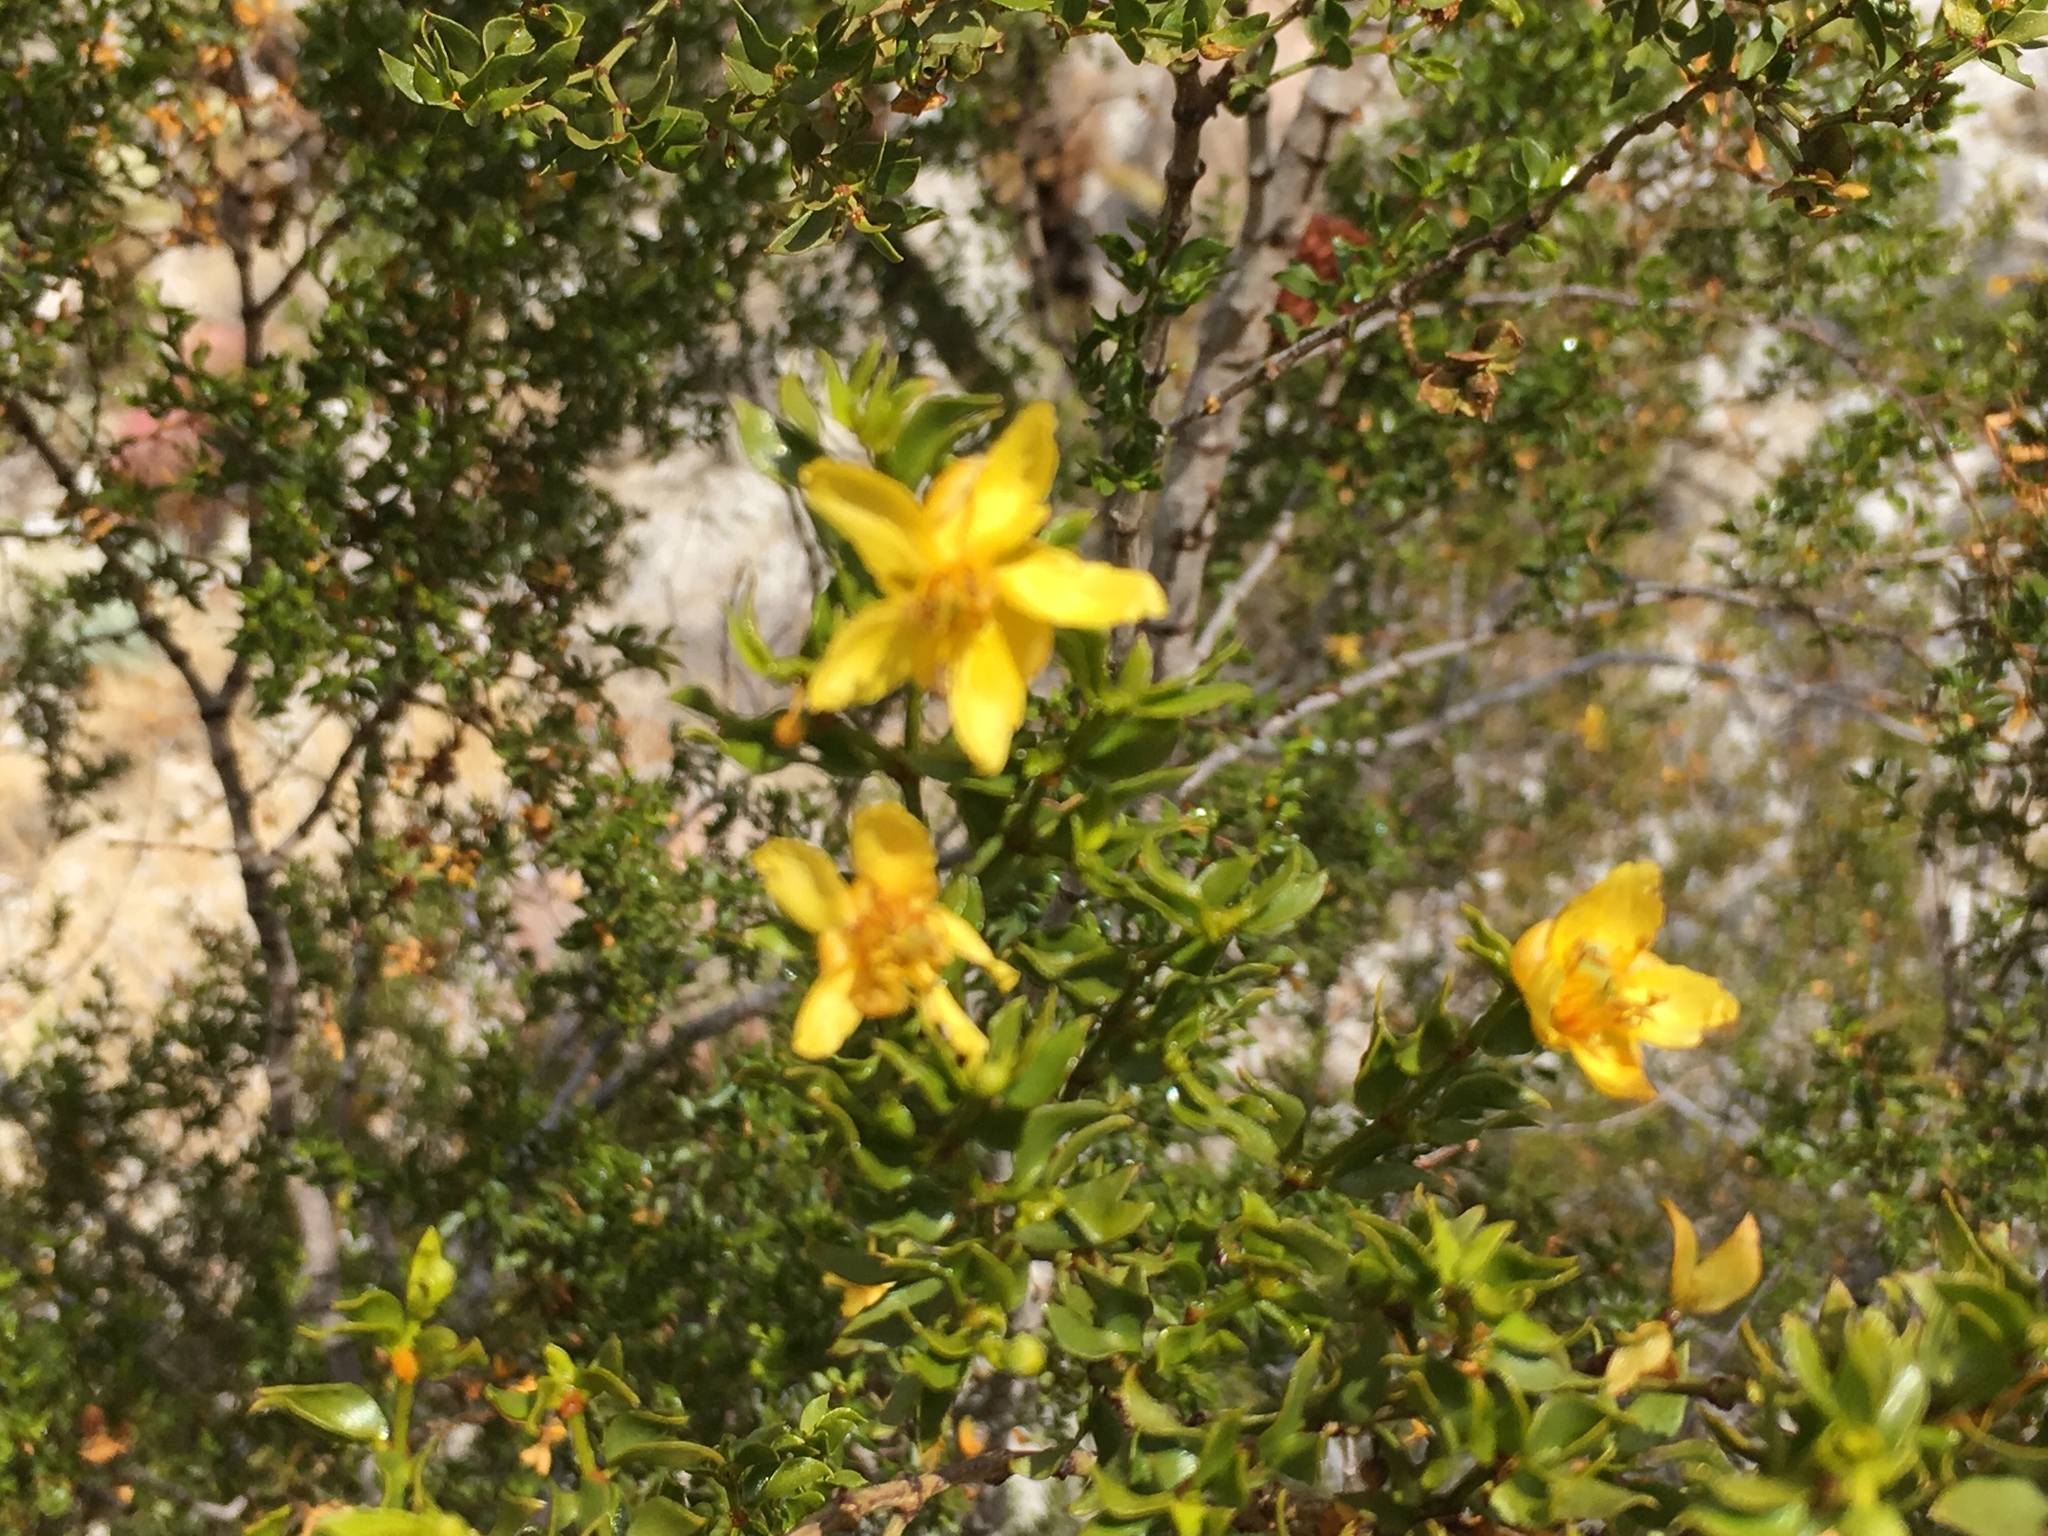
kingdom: Plantae
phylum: Tracheophyta
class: Magnoliopsida
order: Zygophyllales
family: Zygophyllaceae
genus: Larrea
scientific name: Larrea tridentata
